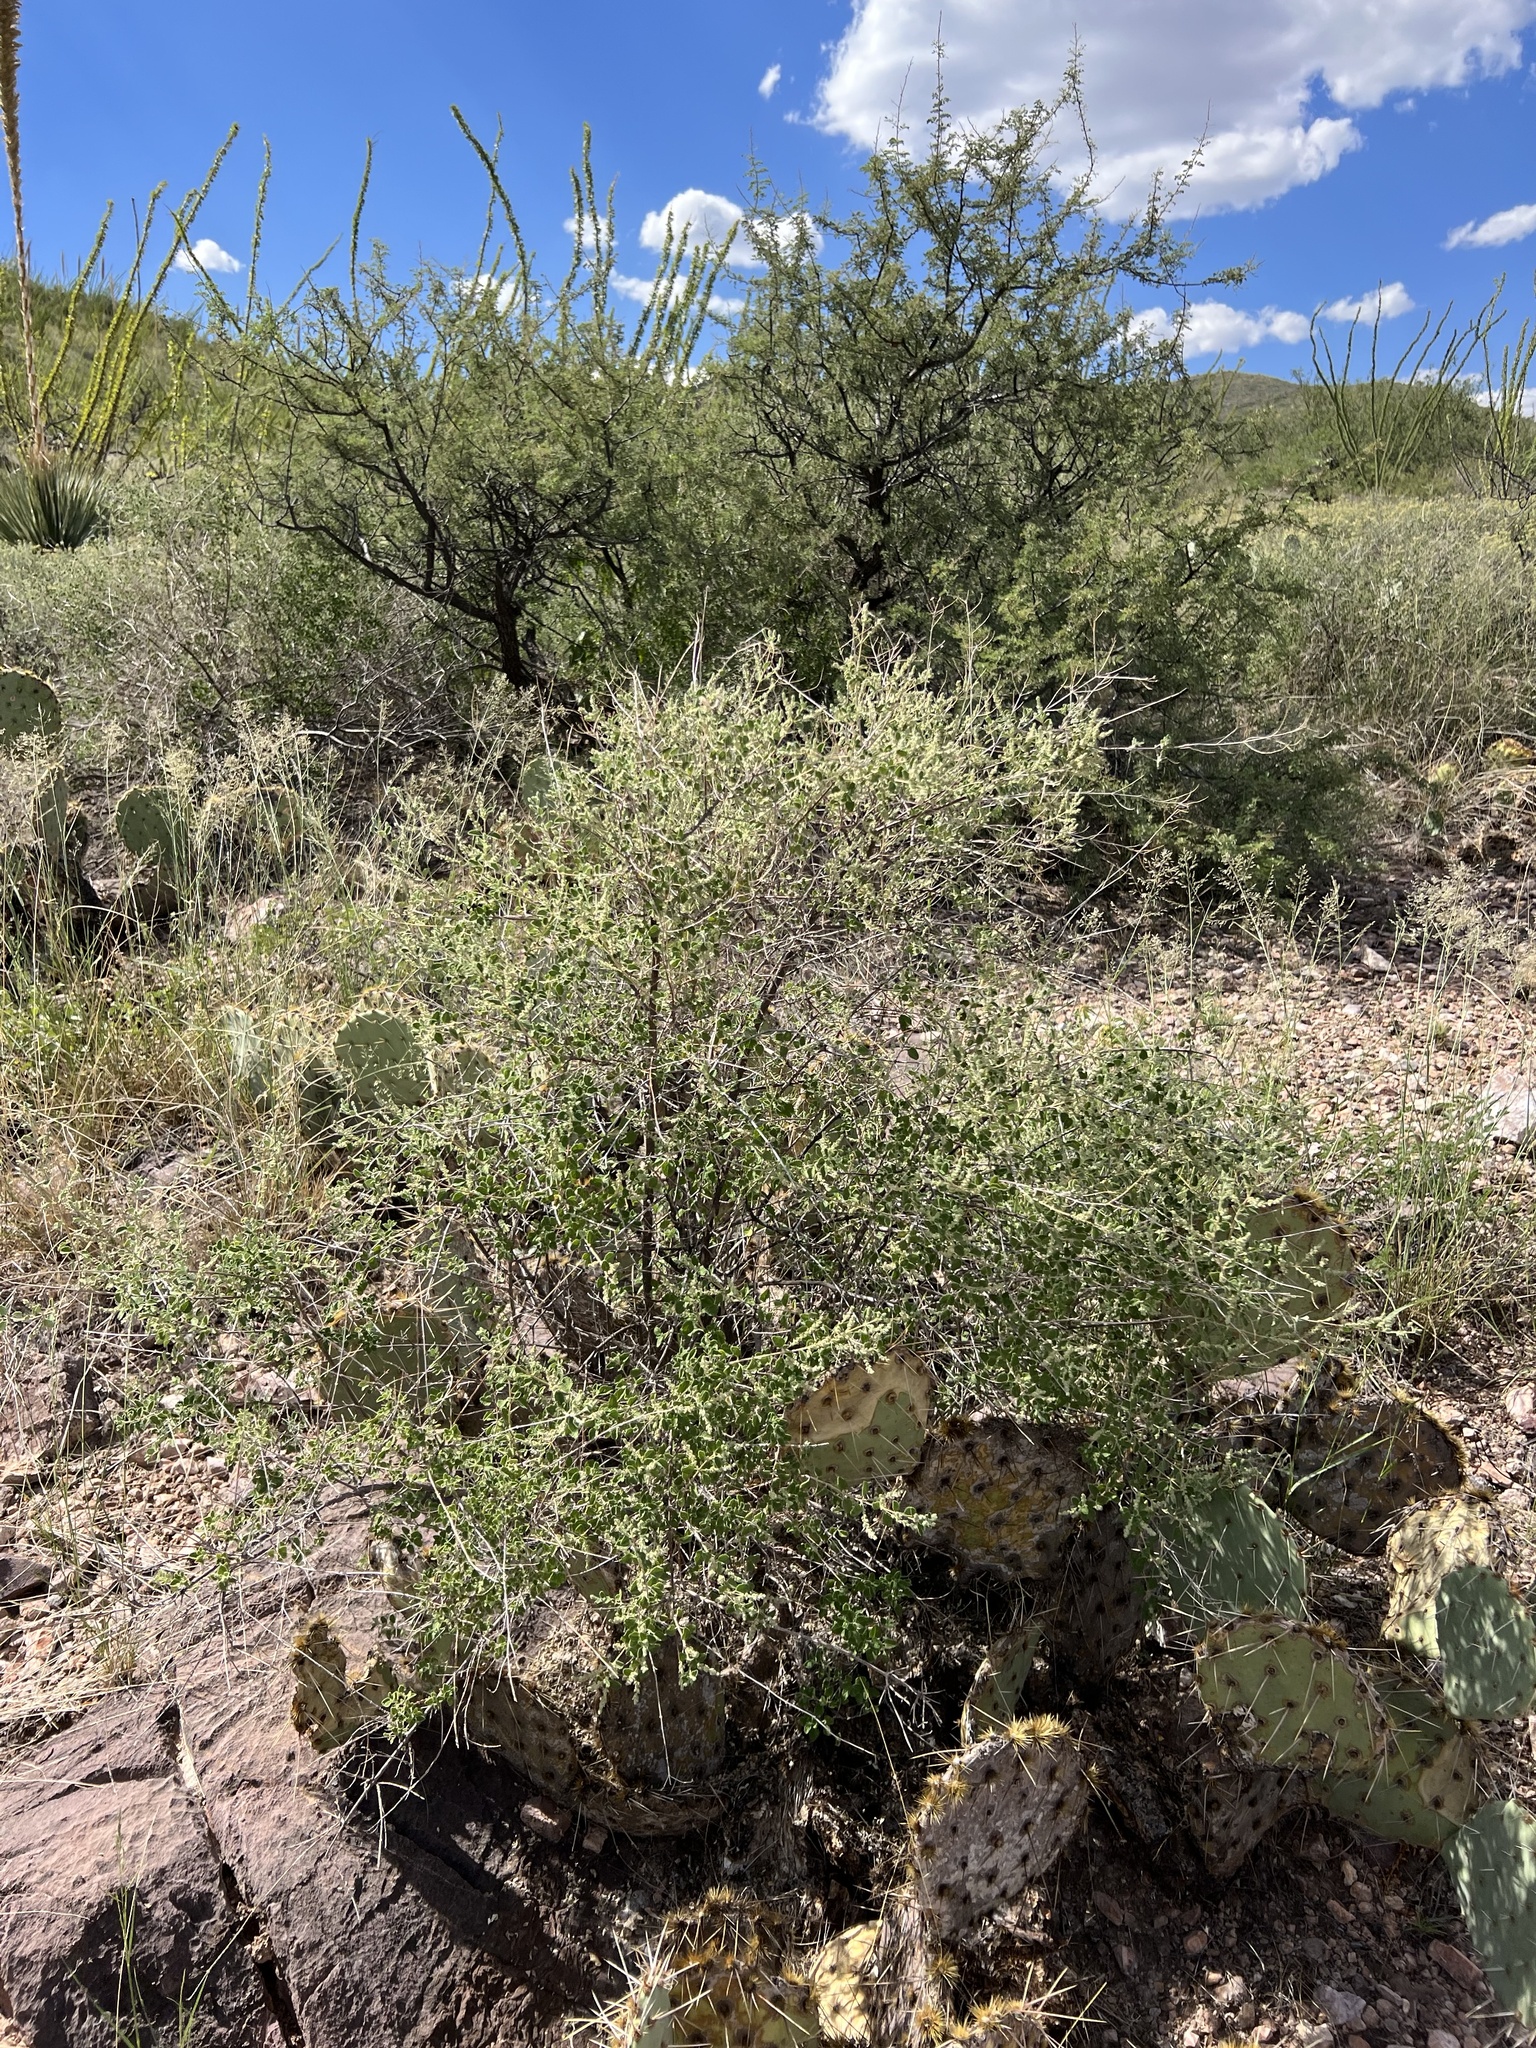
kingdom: Plantae
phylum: Tracheophyta
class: Magnoliopsida
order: Lamiales
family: Verbenaceae
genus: Aloysia
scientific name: Aloysia wrightii
